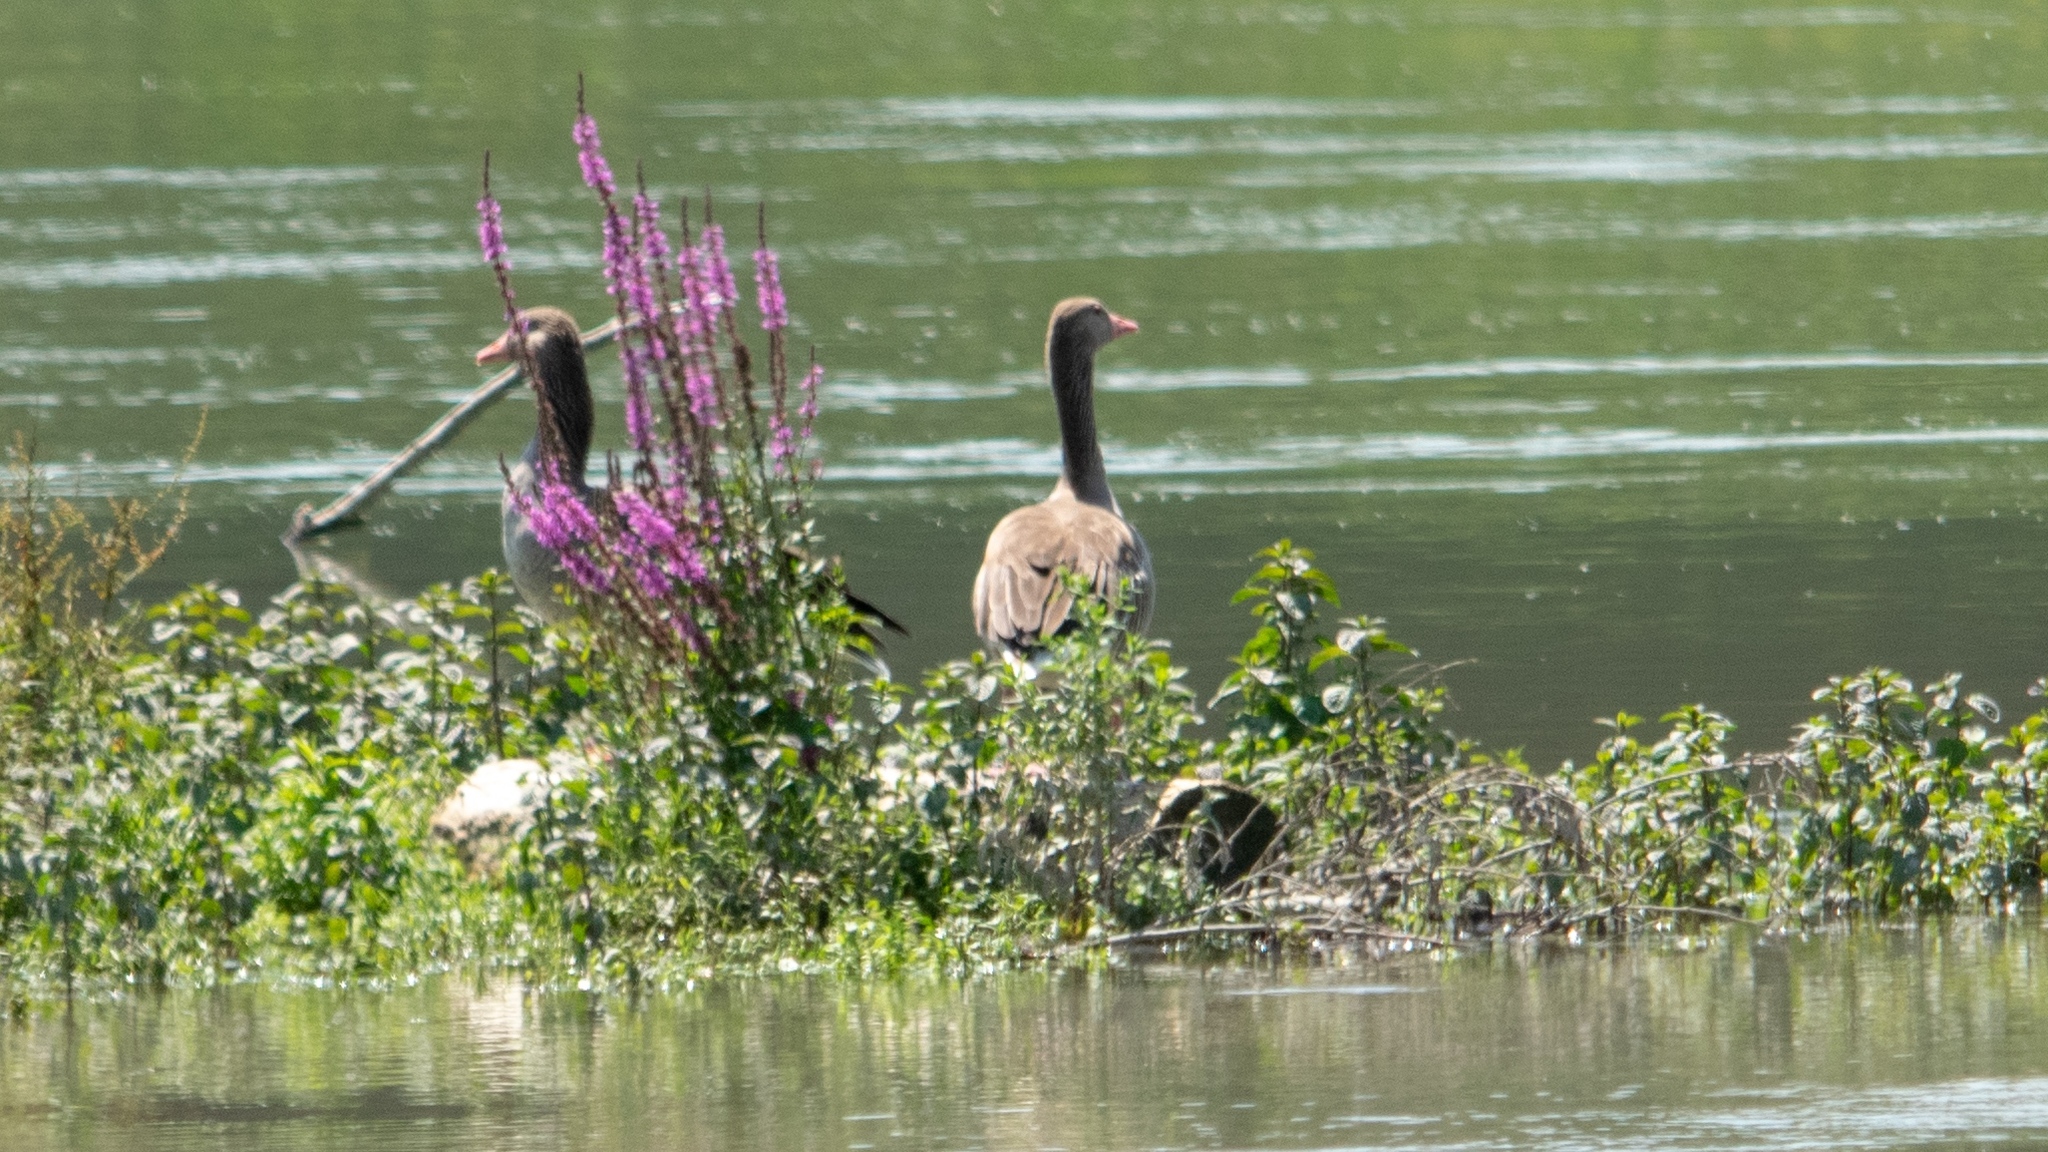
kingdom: Animalia
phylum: Chordata
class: Aves
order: Anseriformes
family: Anatidae
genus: Anser
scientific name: Anser anser
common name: Greylag goose
